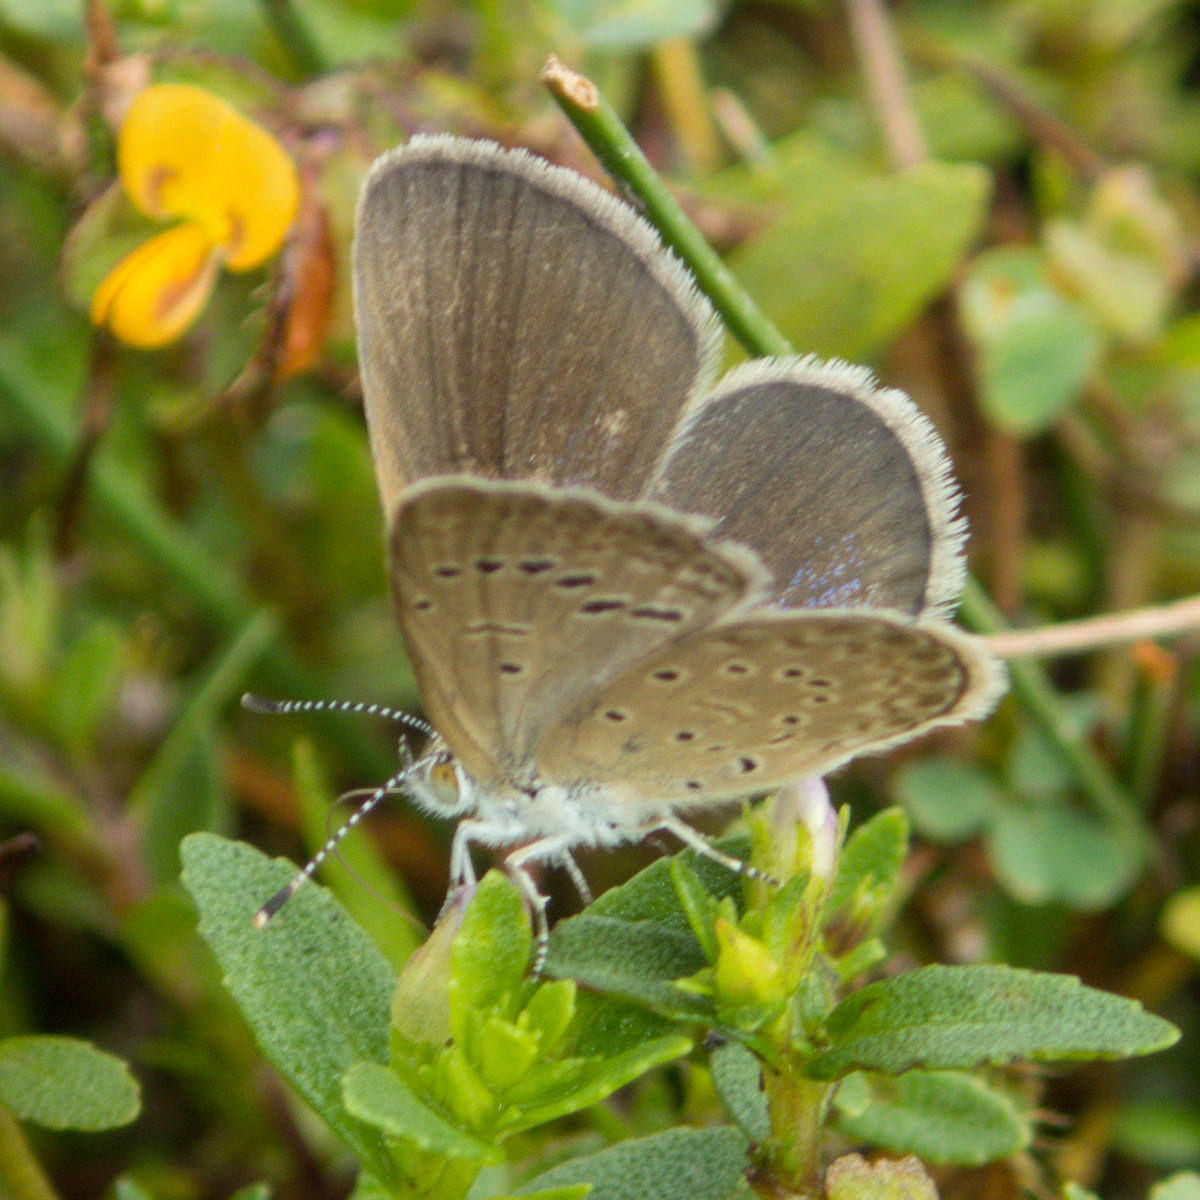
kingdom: Animalia
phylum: Arthropoda
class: Insecta
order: Lepidoptera
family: Lycaenidae
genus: Zizeeria
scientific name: Zizeeria karsandra
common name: Dark grass blue
